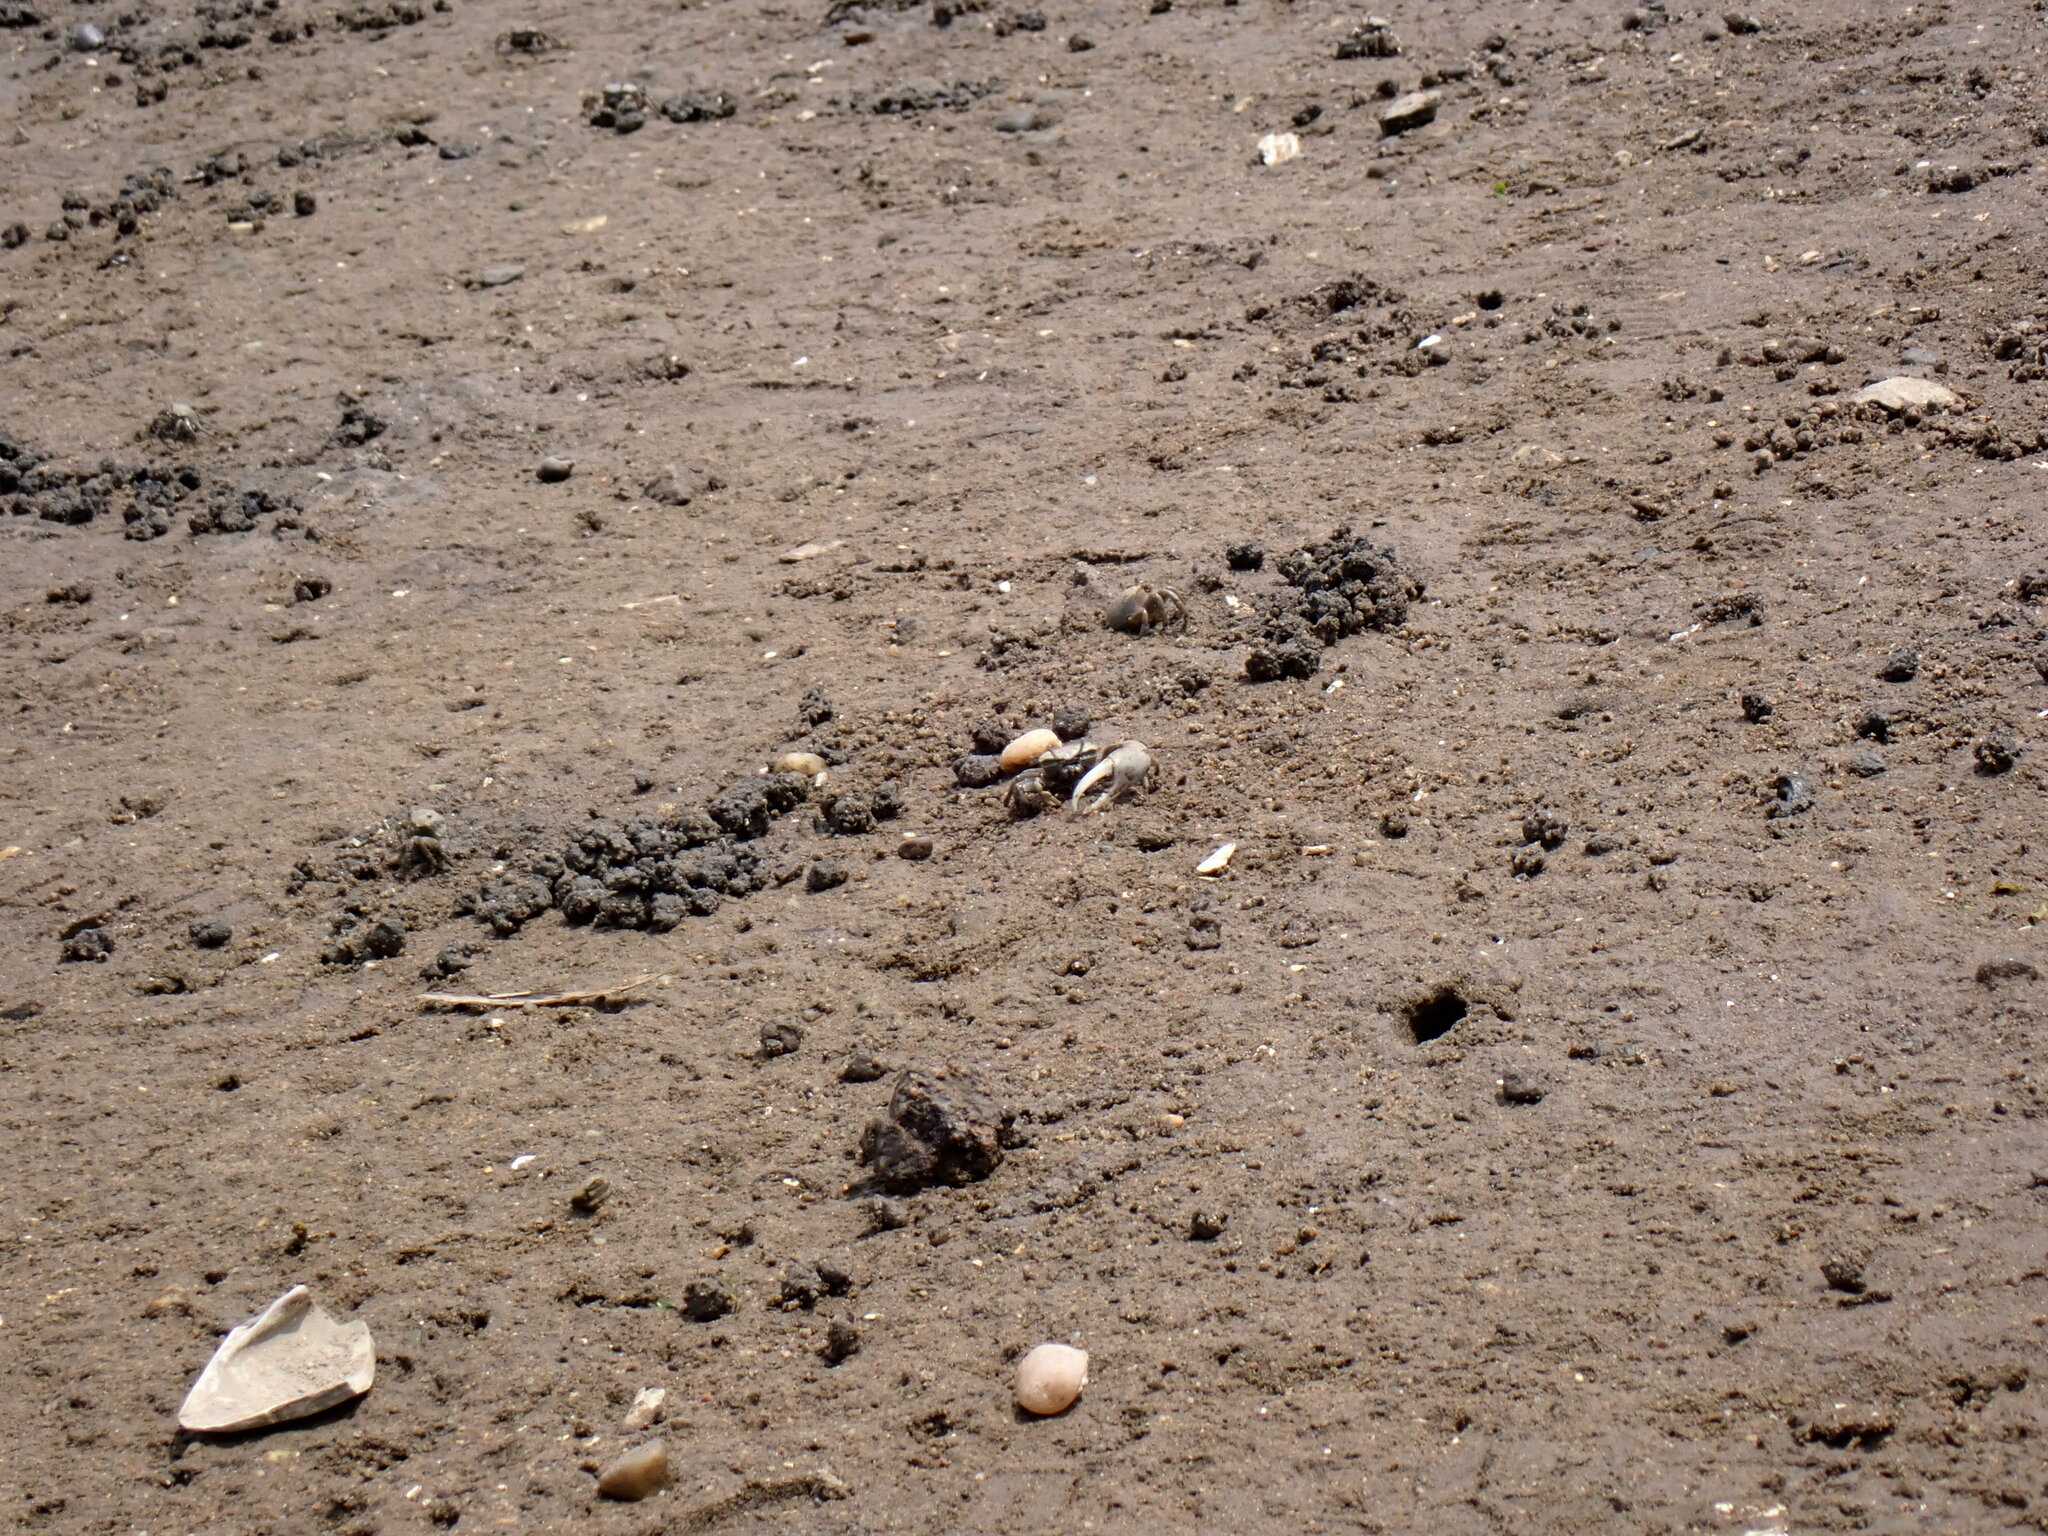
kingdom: Animalia
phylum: Arthropoda
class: Malacostraca
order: Decapoda
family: Ocypodidae
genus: Leptuca
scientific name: Leptuca pugilator
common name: Atlantic sand fiddler crab
